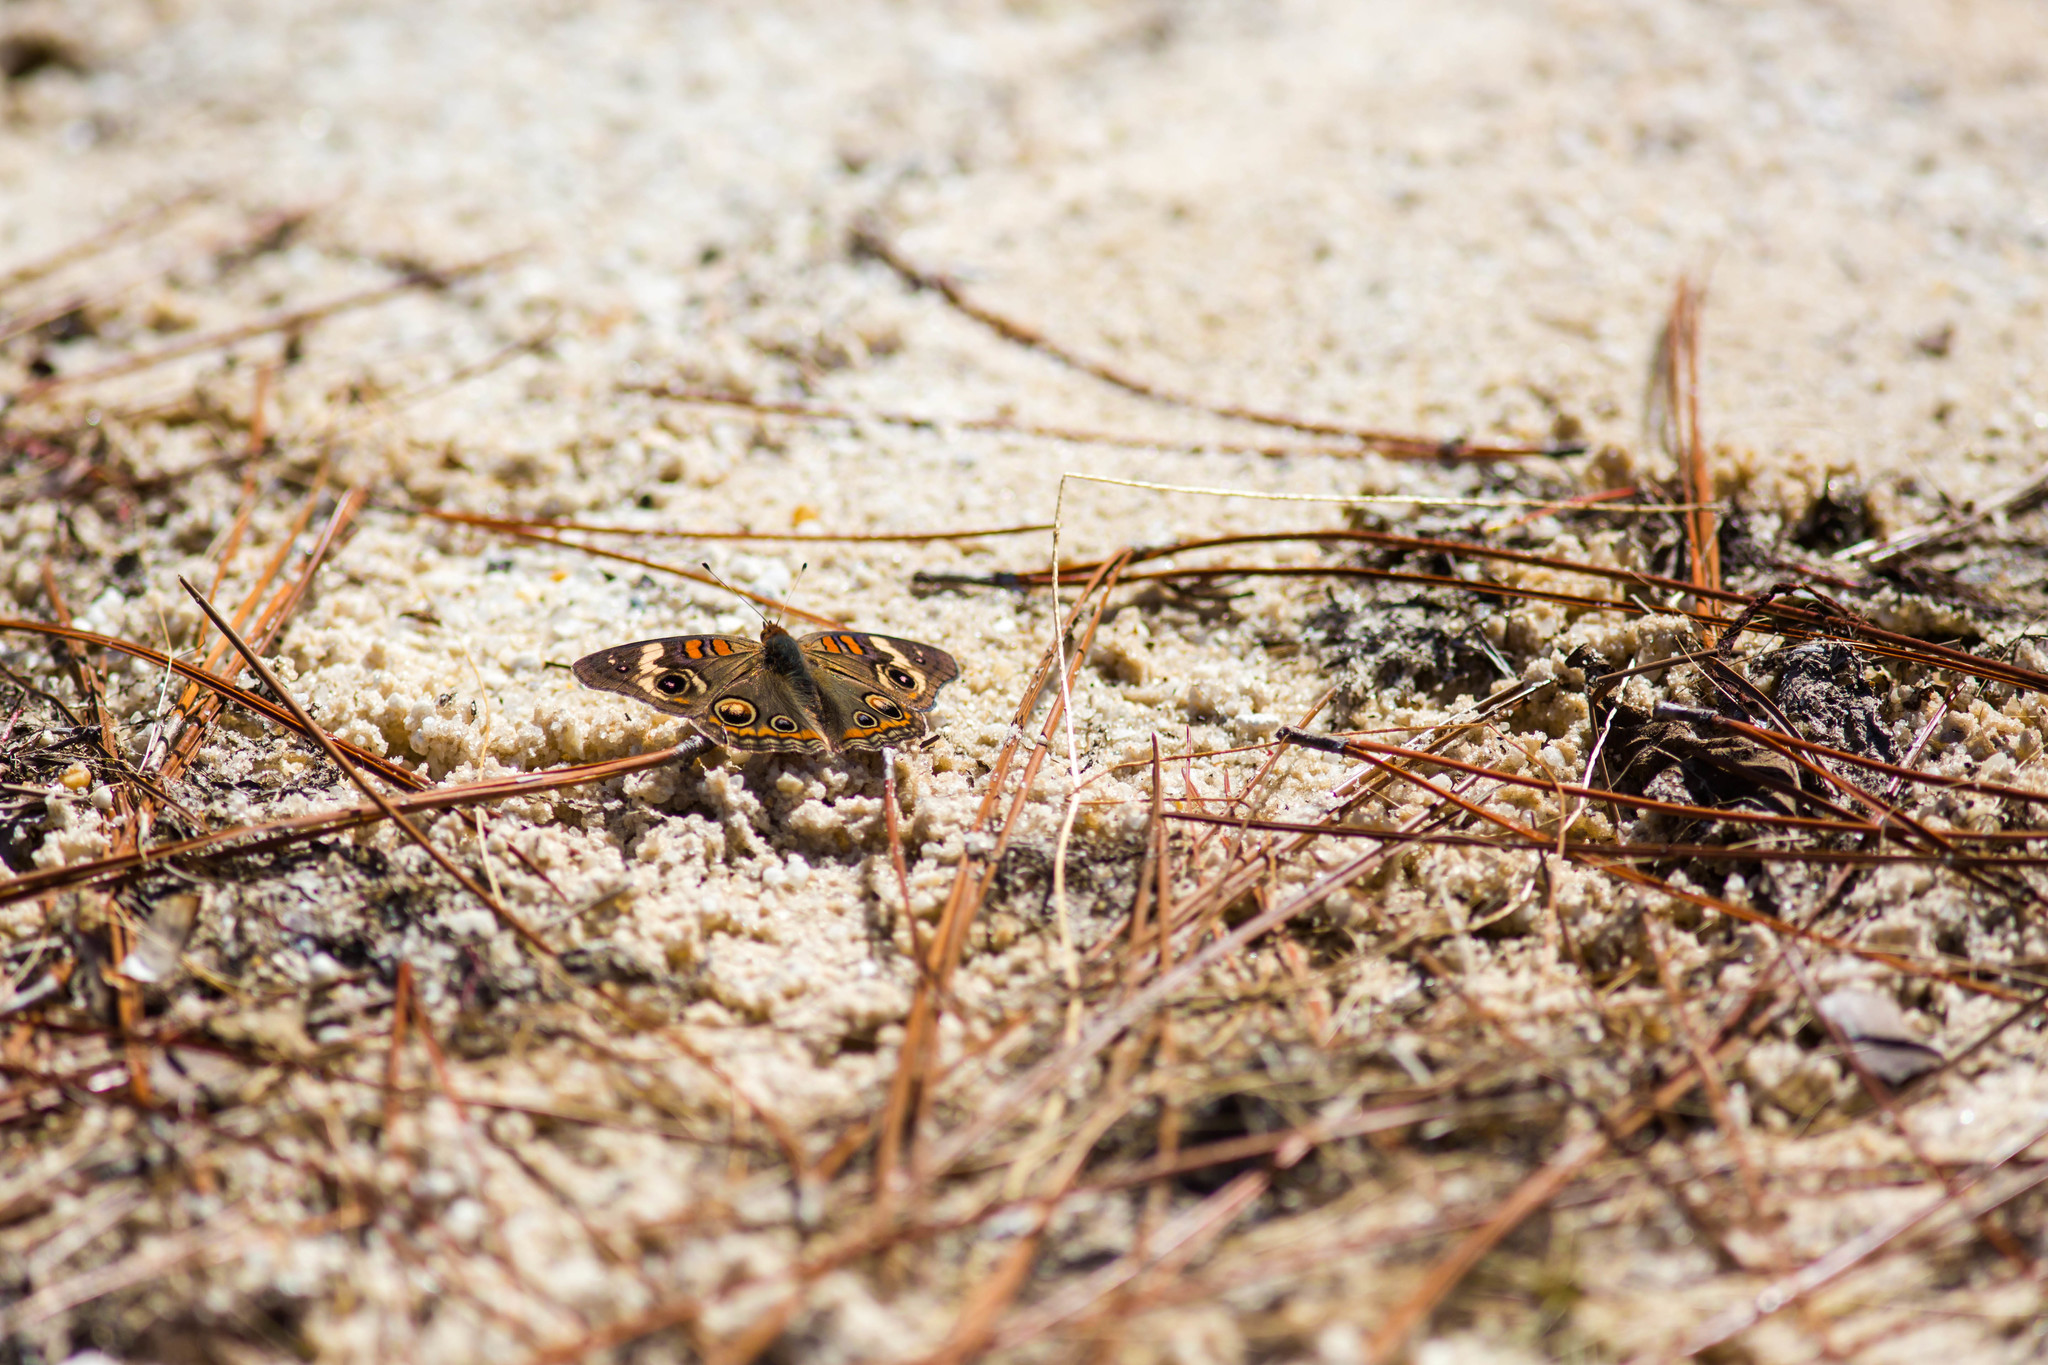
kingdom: Animalia
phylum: Arthropoda
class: Insecta
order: Lepidoptera
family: Nymphalidae
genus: Junonia
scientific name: Junonia coenia
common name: Common buckeye
